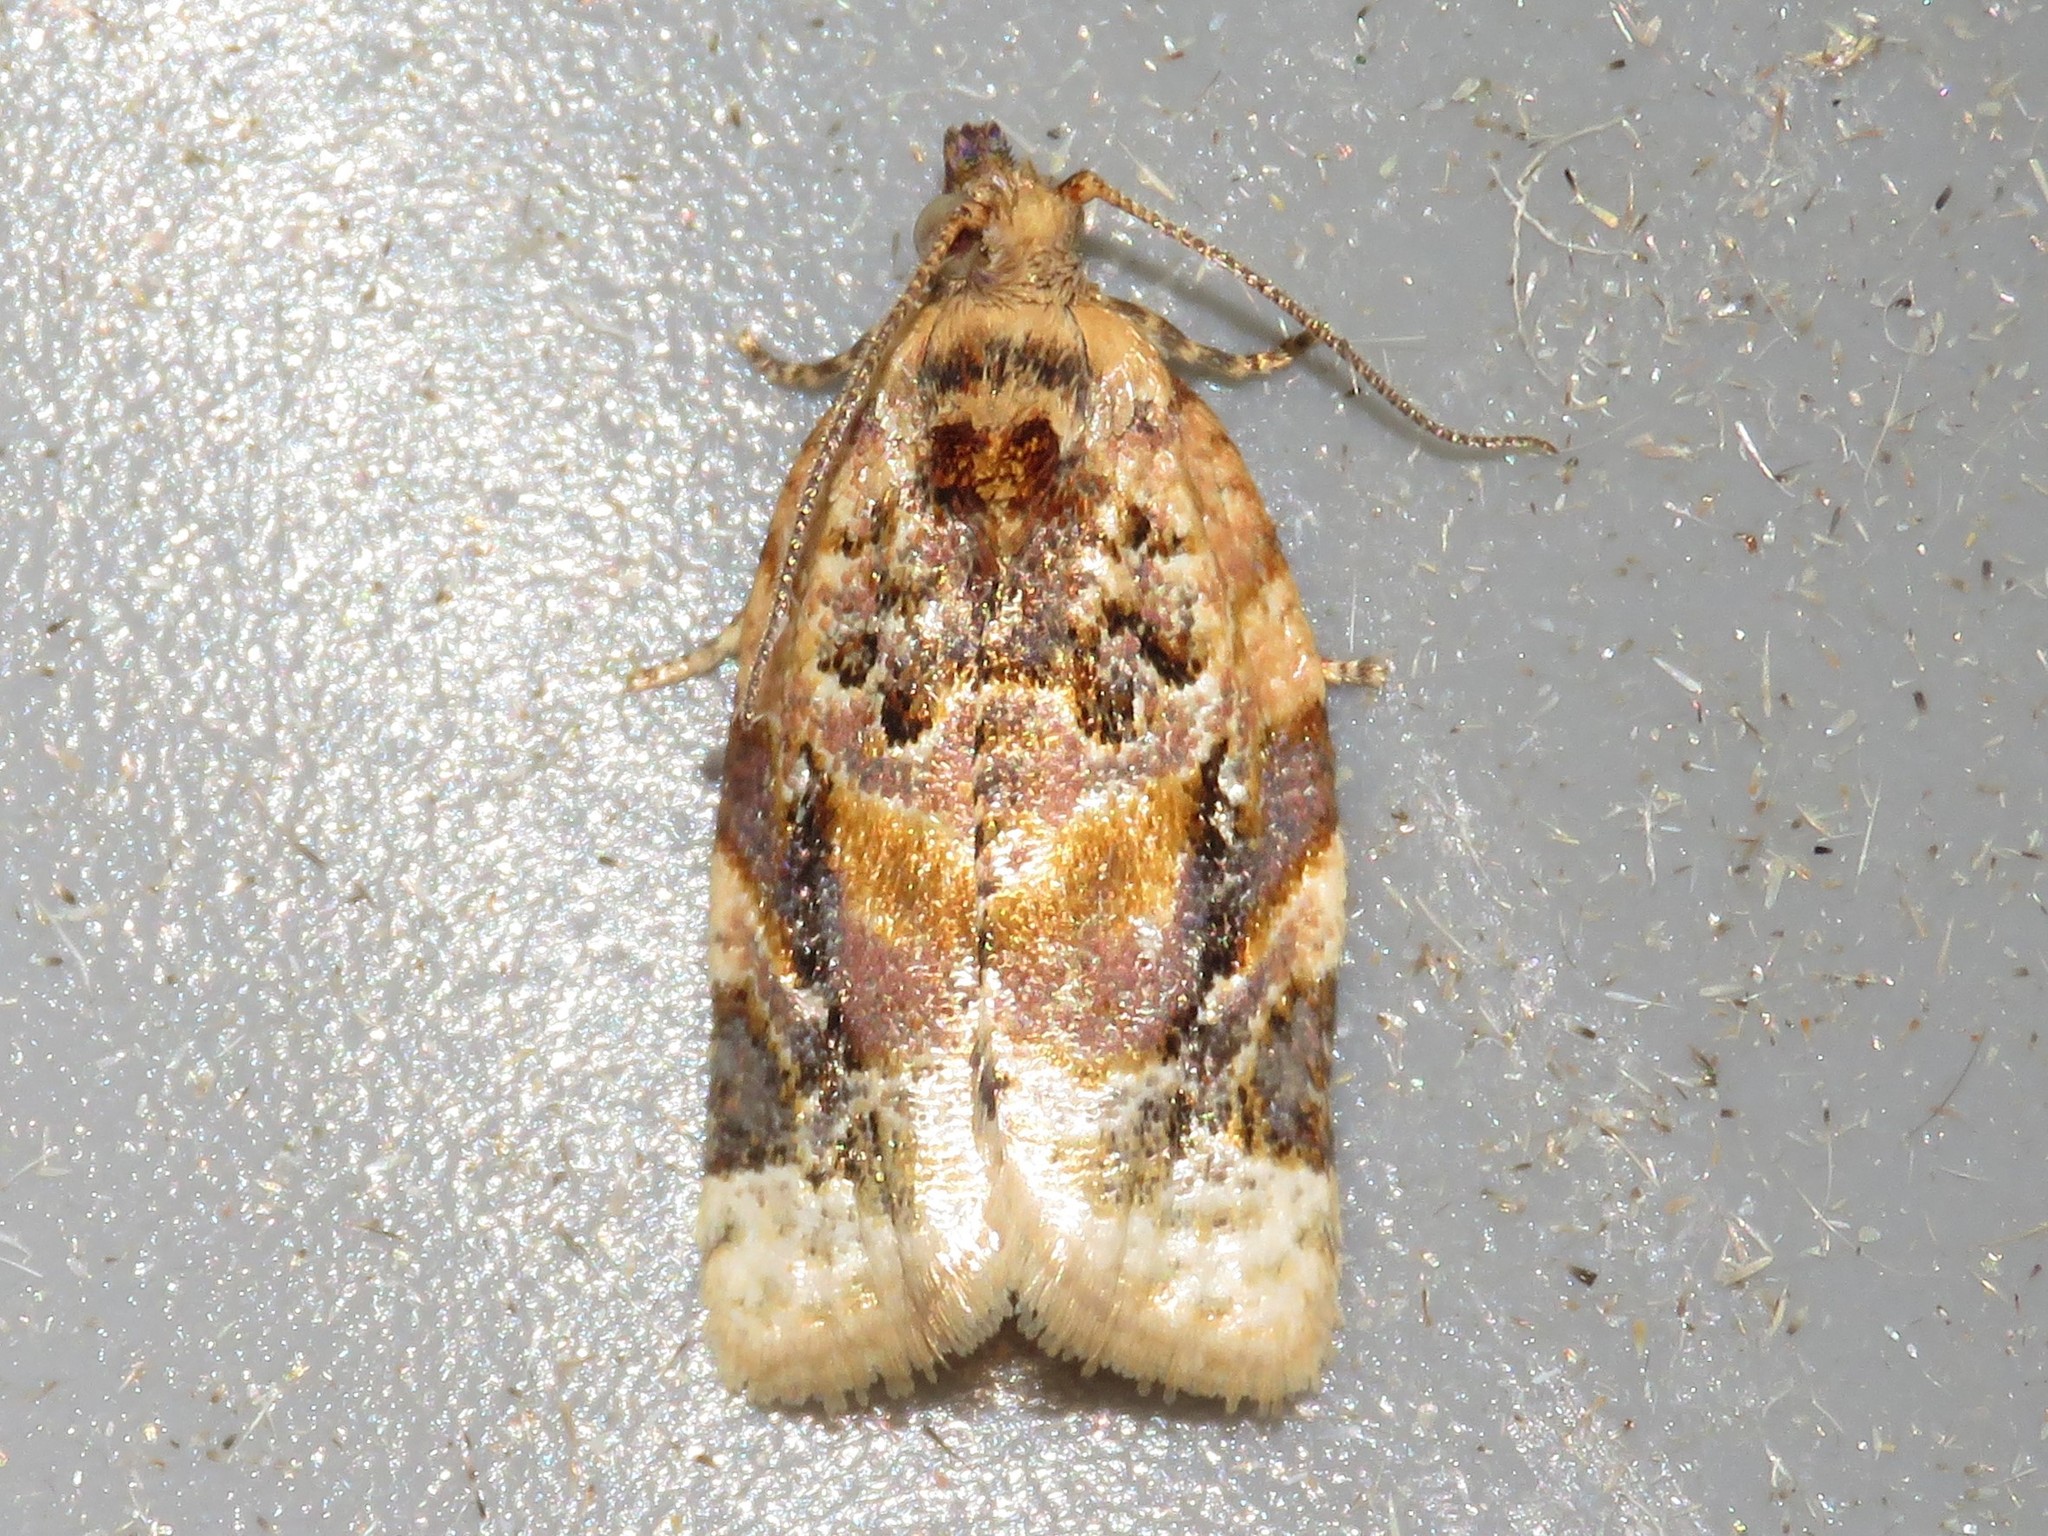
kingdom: Animalia
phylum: Arthropoda
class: Insecta
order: Lepidoptera
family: Tortricidae
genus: Argyrotaenia
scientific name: Argyrotaenia velutinana
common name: Red-banded leafroller moth
